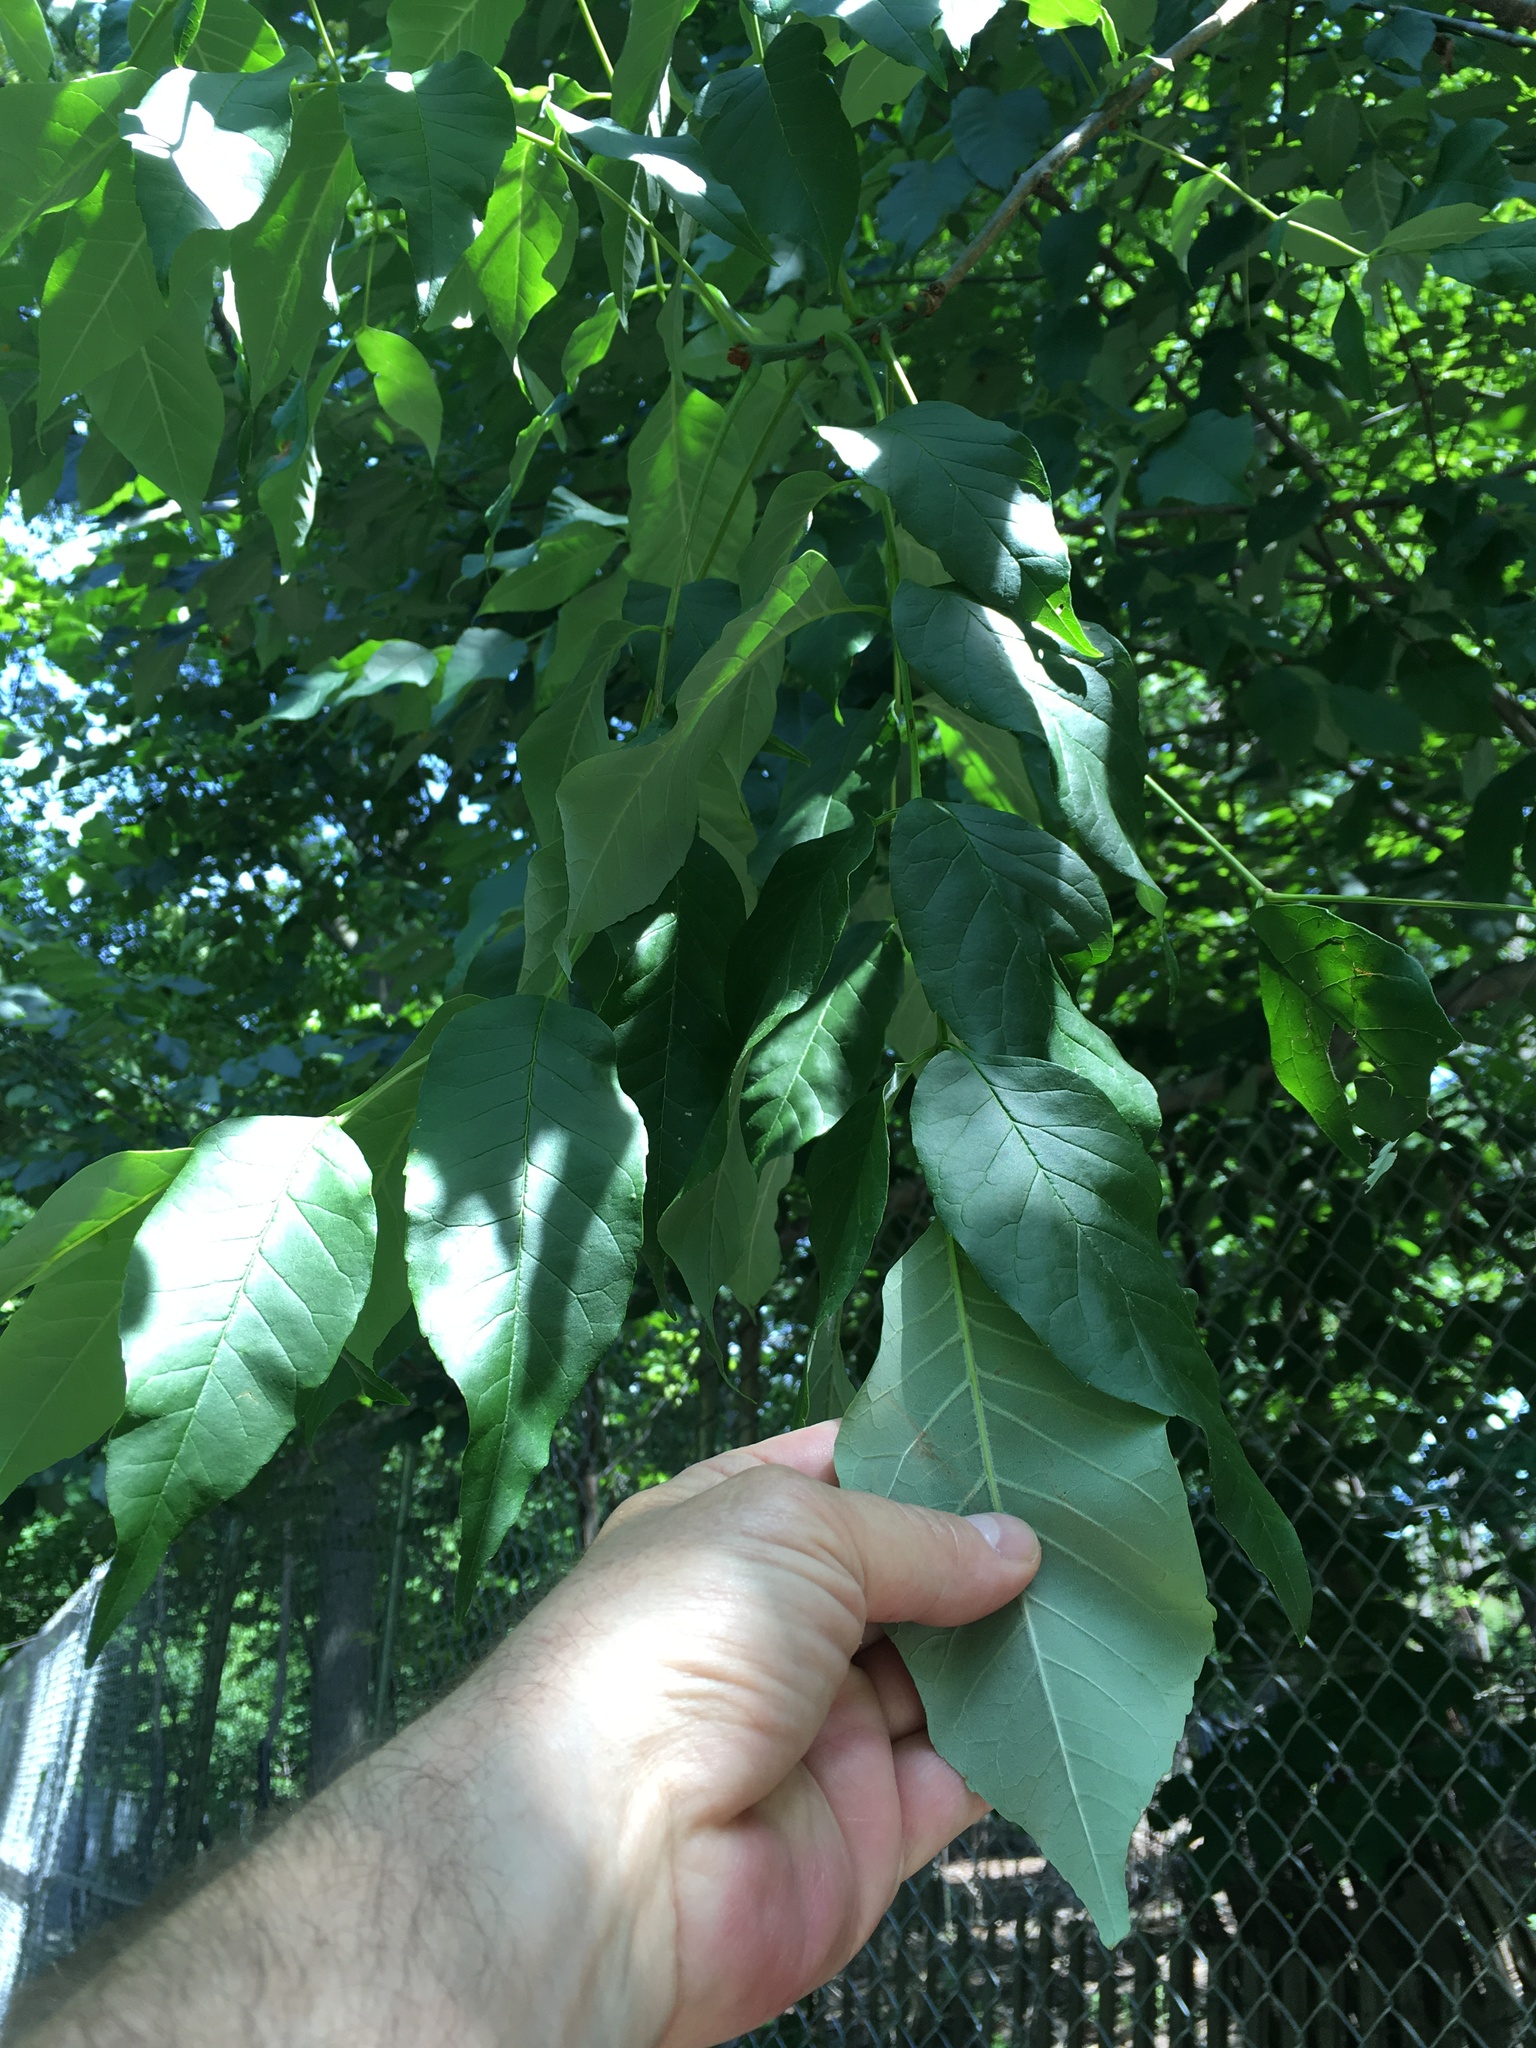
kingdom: Plantae
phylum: Tracheophyta
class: Magnoliopsida
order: Lamiales
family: Oleaceae
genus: Fraxinus
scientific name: Fraxinus americana
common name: White ash
